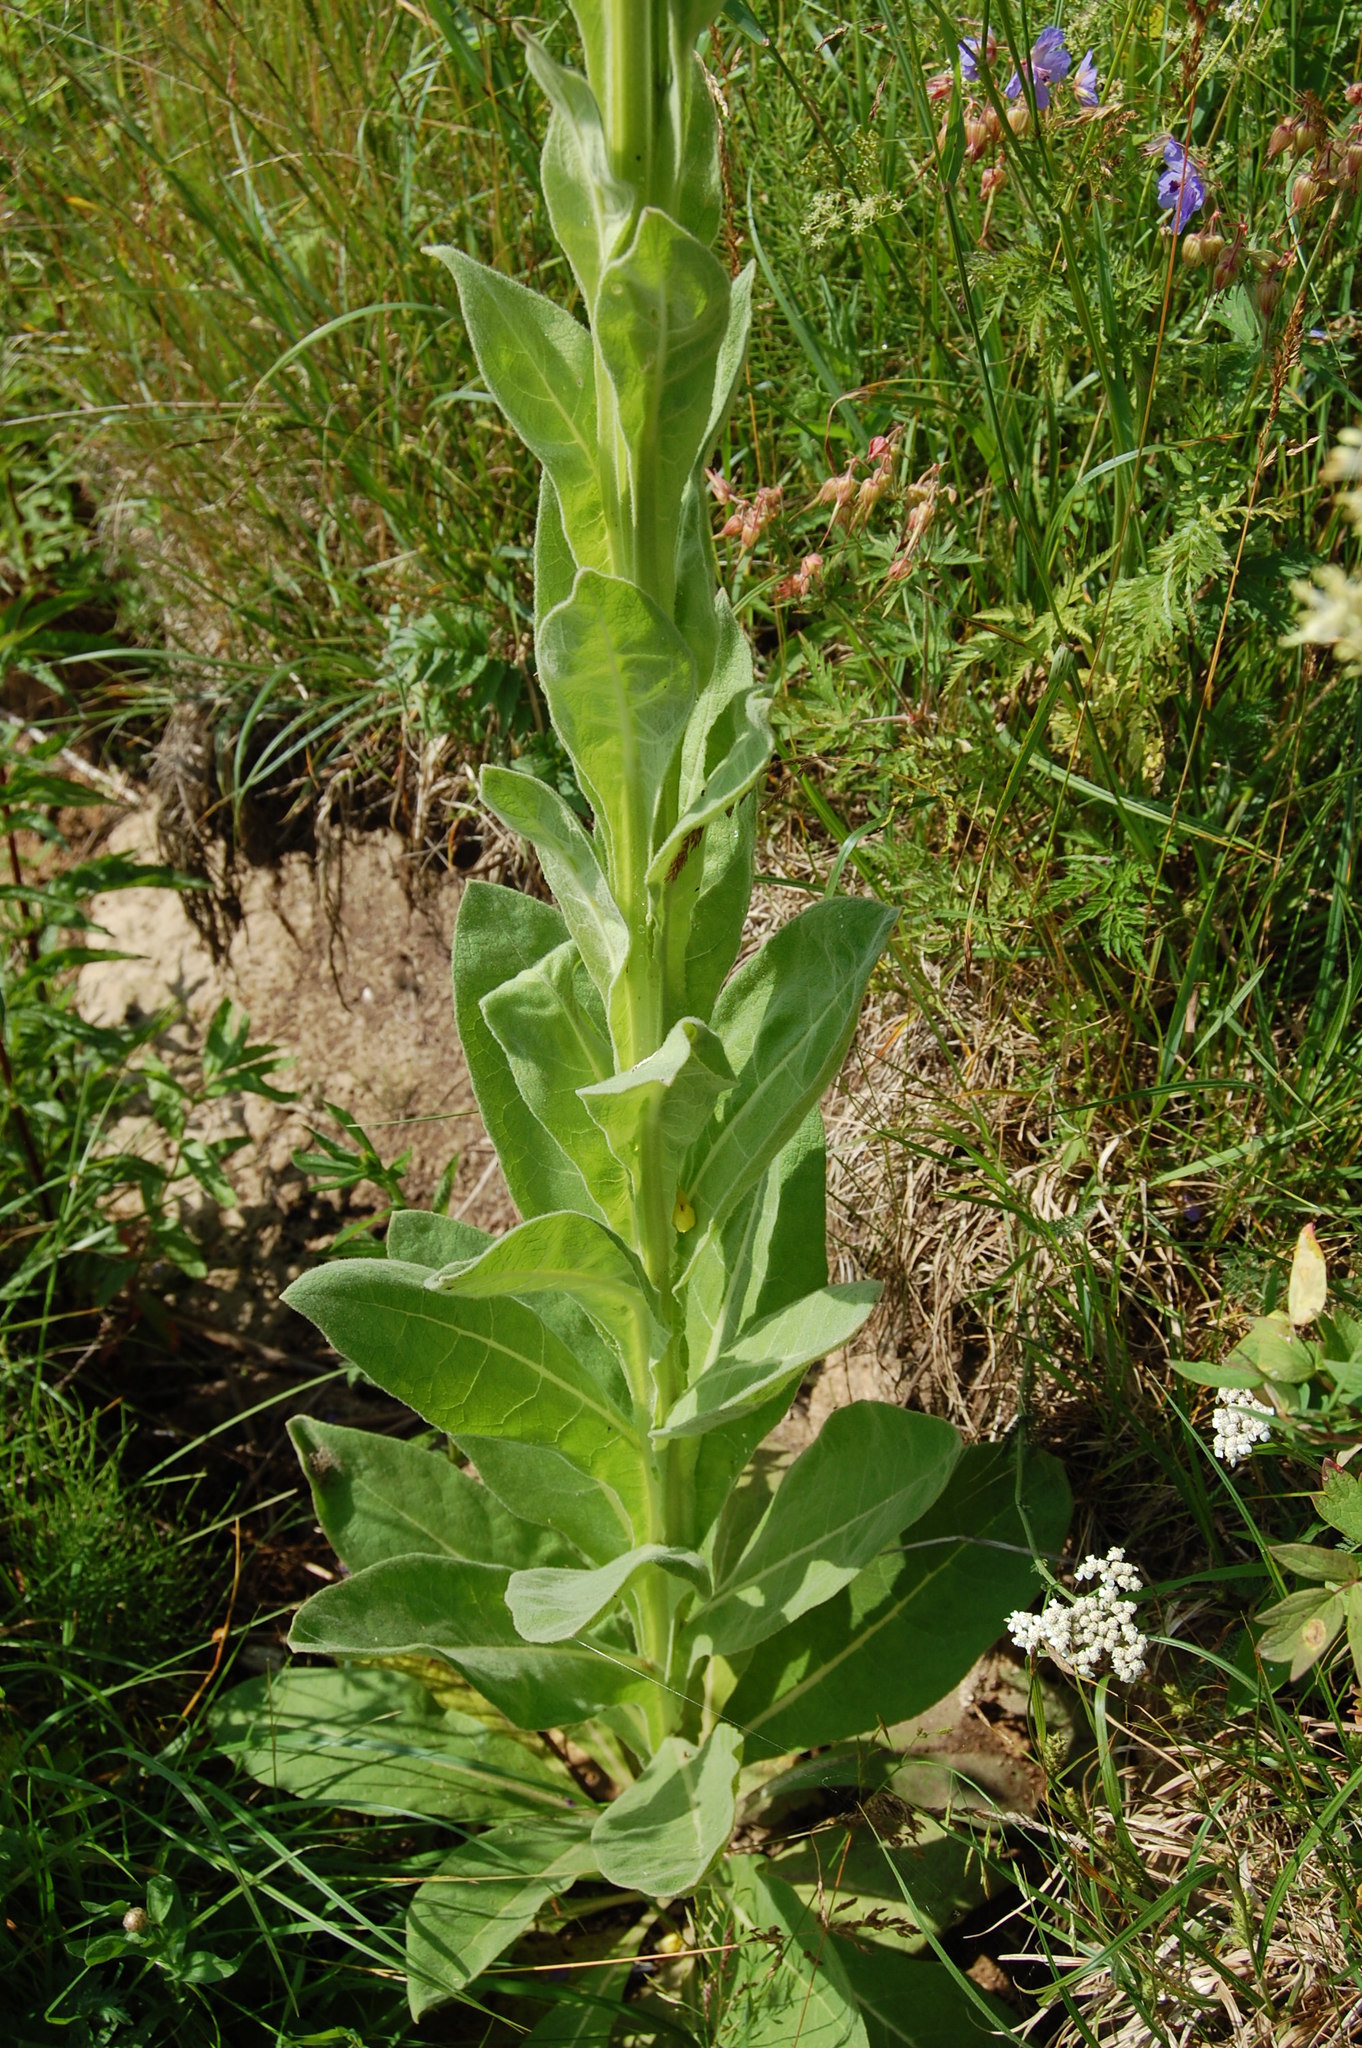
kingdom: Plantae
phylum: Tracheophyta
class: Magnoliopsida
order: Lamiales
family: Scrophulariaceae
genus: Verbascum
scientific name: Verbascum thapsus
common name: Common mullein
